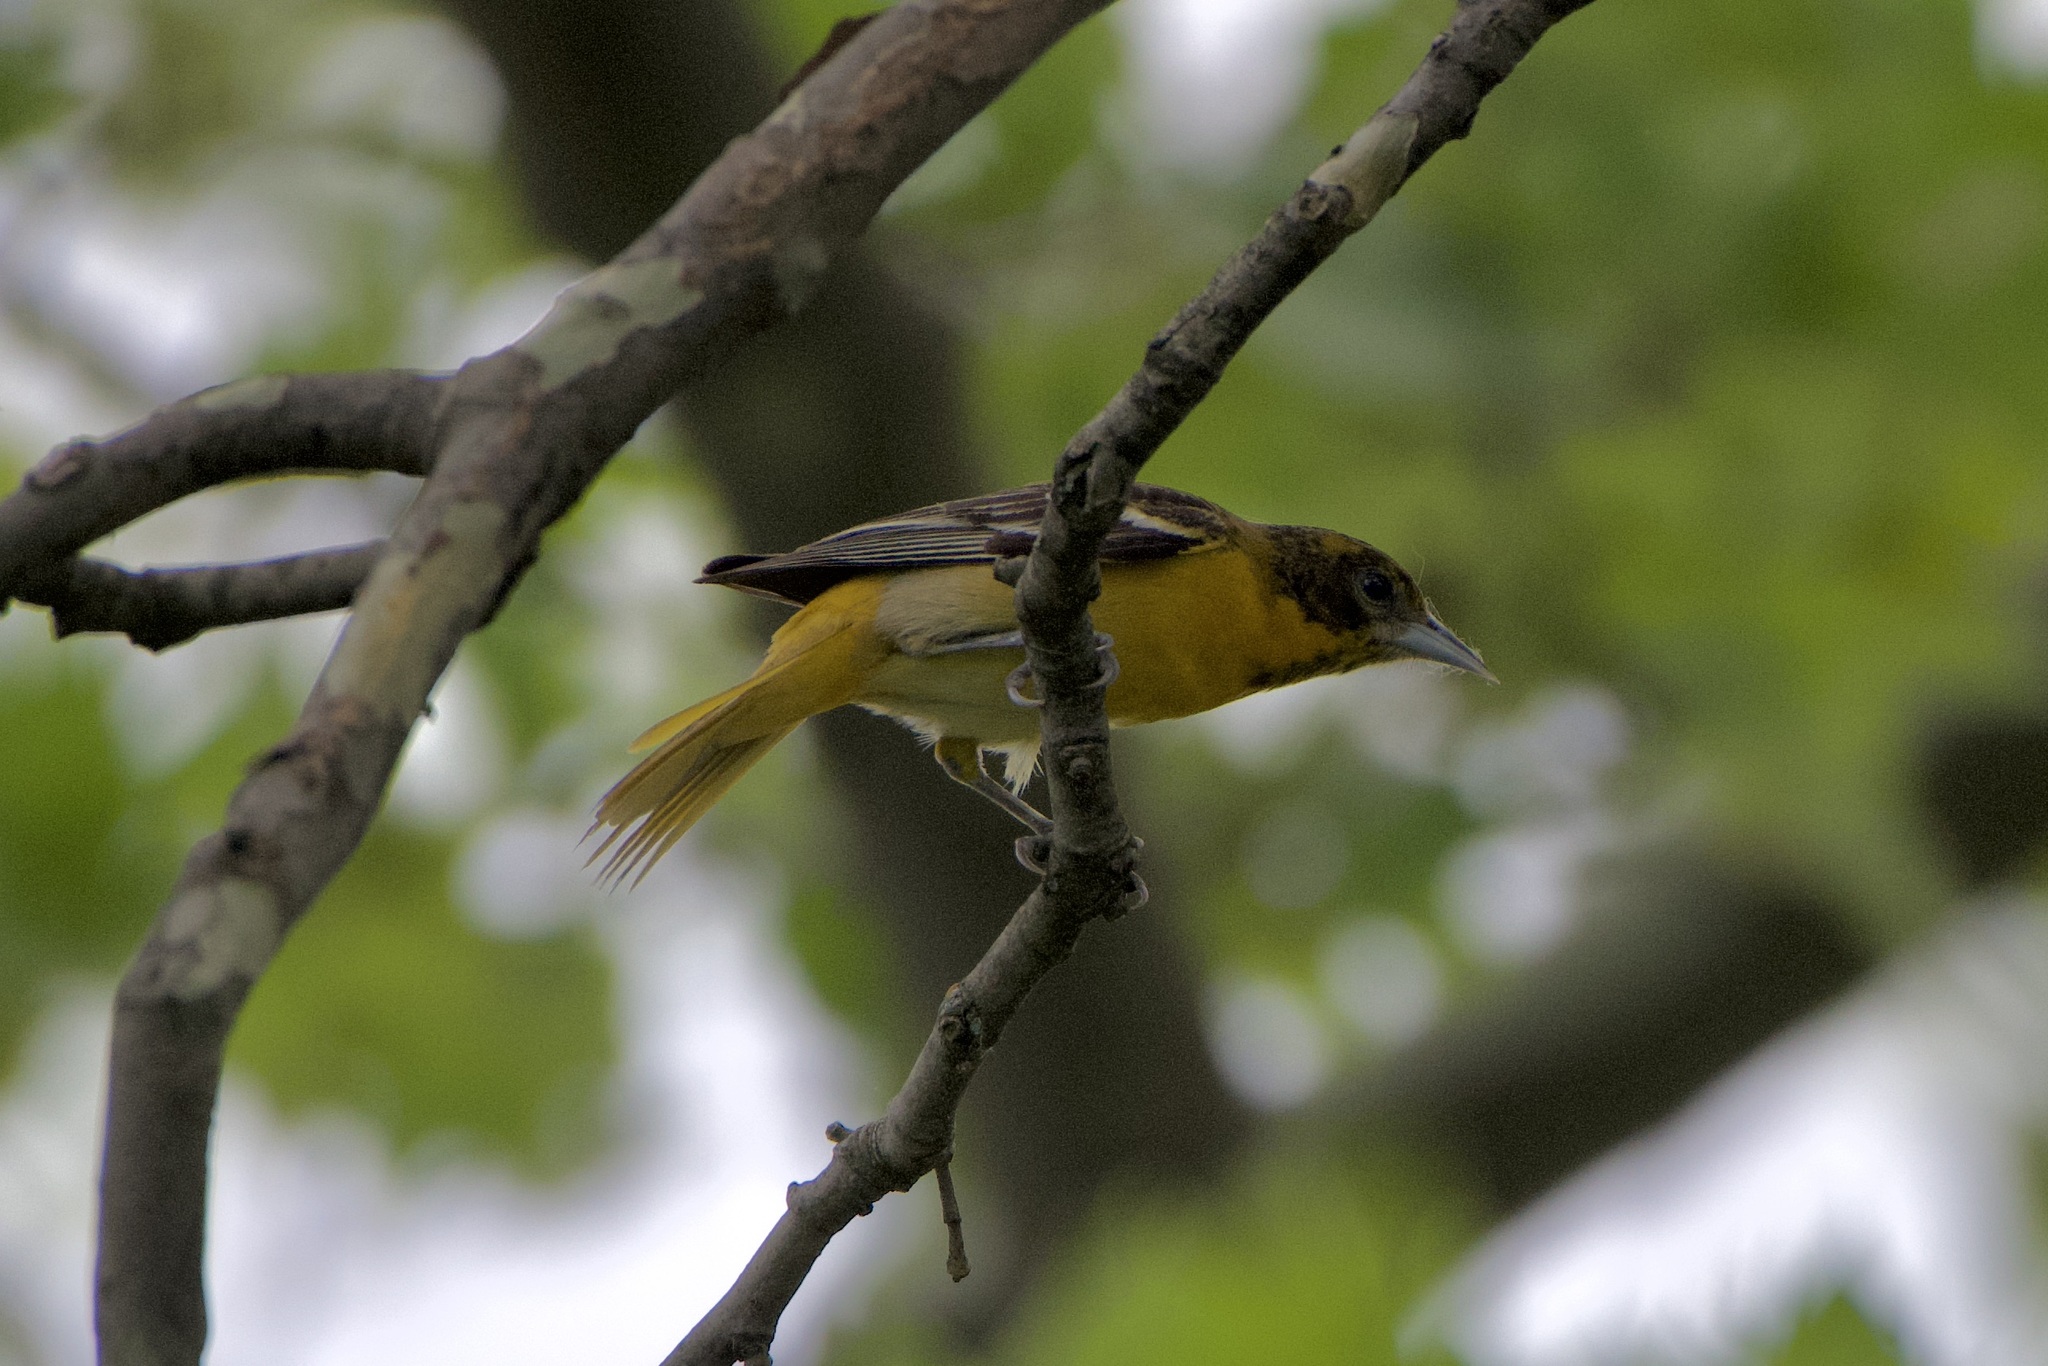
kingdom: Animalia
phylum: Chordata
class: Aves
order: Passeriformes
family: Icteridae
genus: Icterus
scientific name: Icterus galbula
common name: Baltimore oriole
